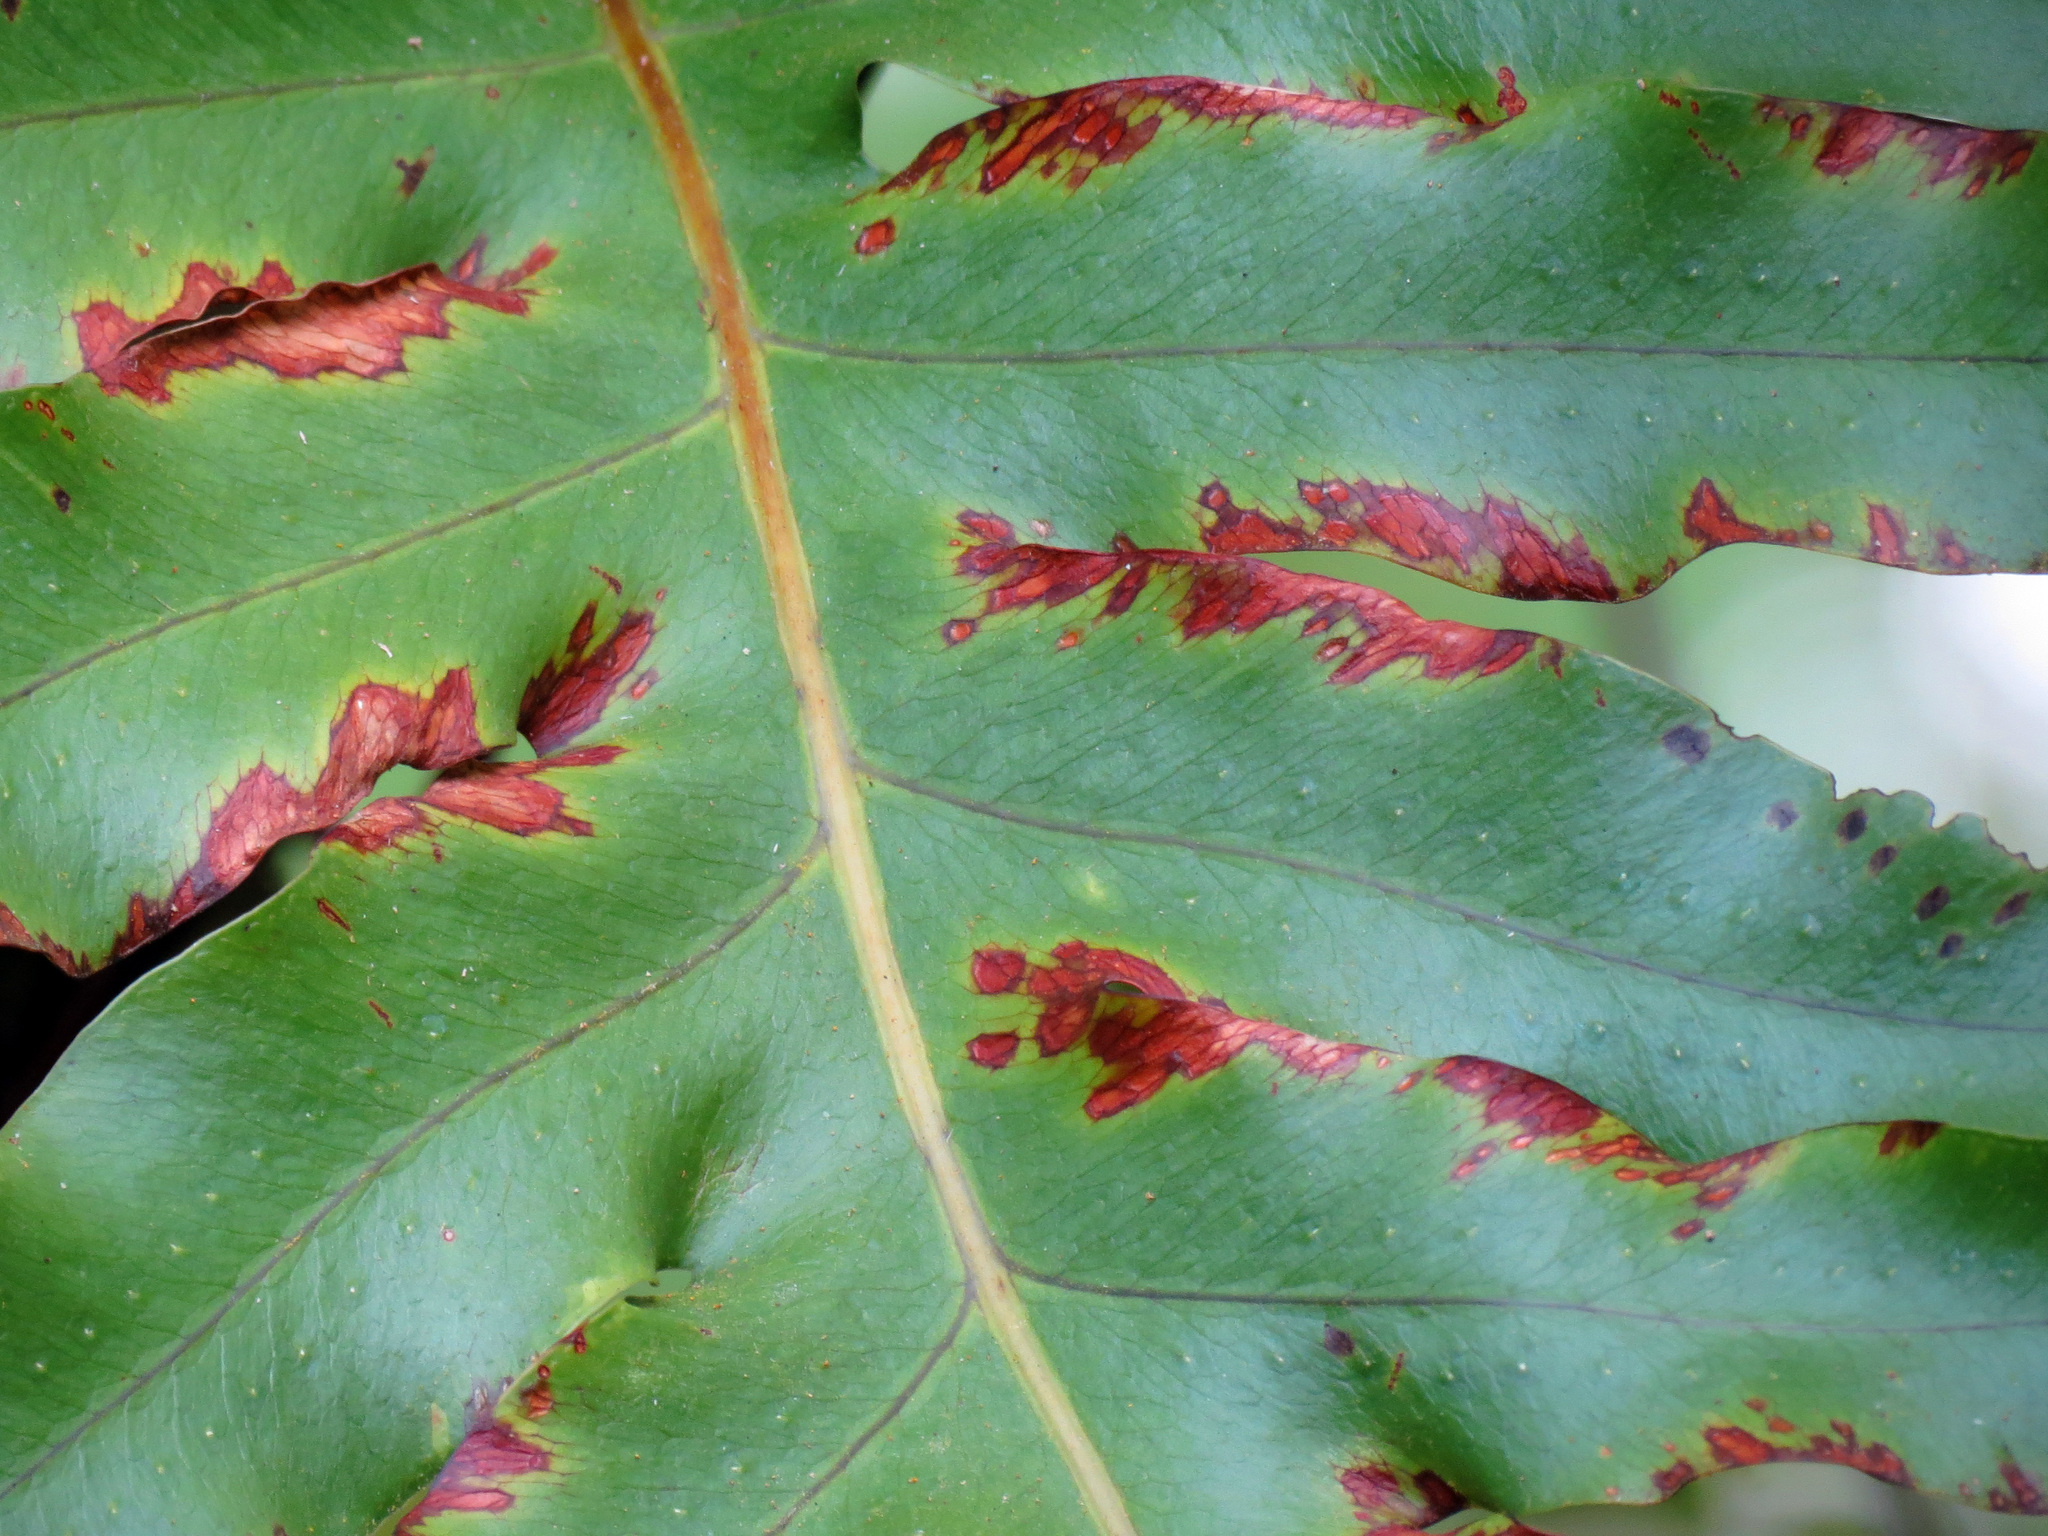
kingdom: Plantae
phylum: Tracheophyta
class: Polypodiopsida
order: Polypodiales
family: Polypodiaceae
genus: Phlebodium
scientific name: Phlebodium aureum
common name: Gold-foot fern
